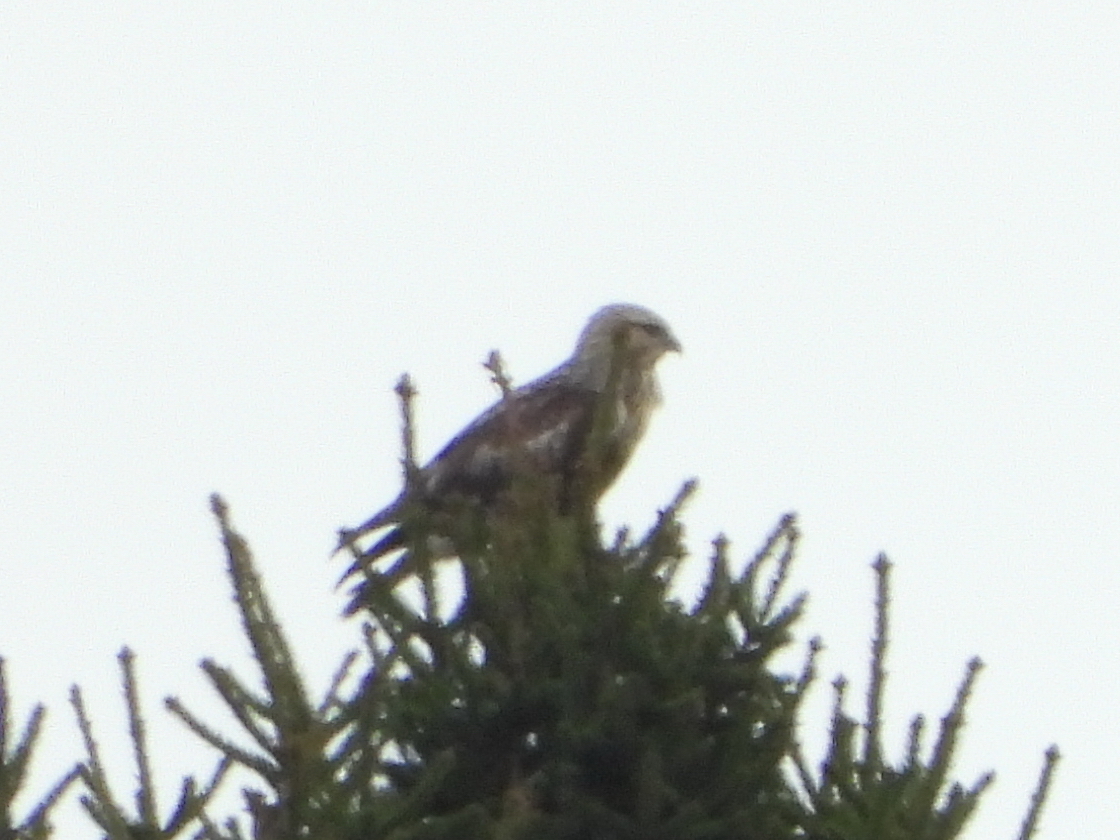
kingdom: Animalia
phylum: Chordata
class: Aves
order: Accipitriformes
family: Accipitridae
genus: Buteo
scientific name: Buteo lagopus
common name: Rough-legged buzzard
